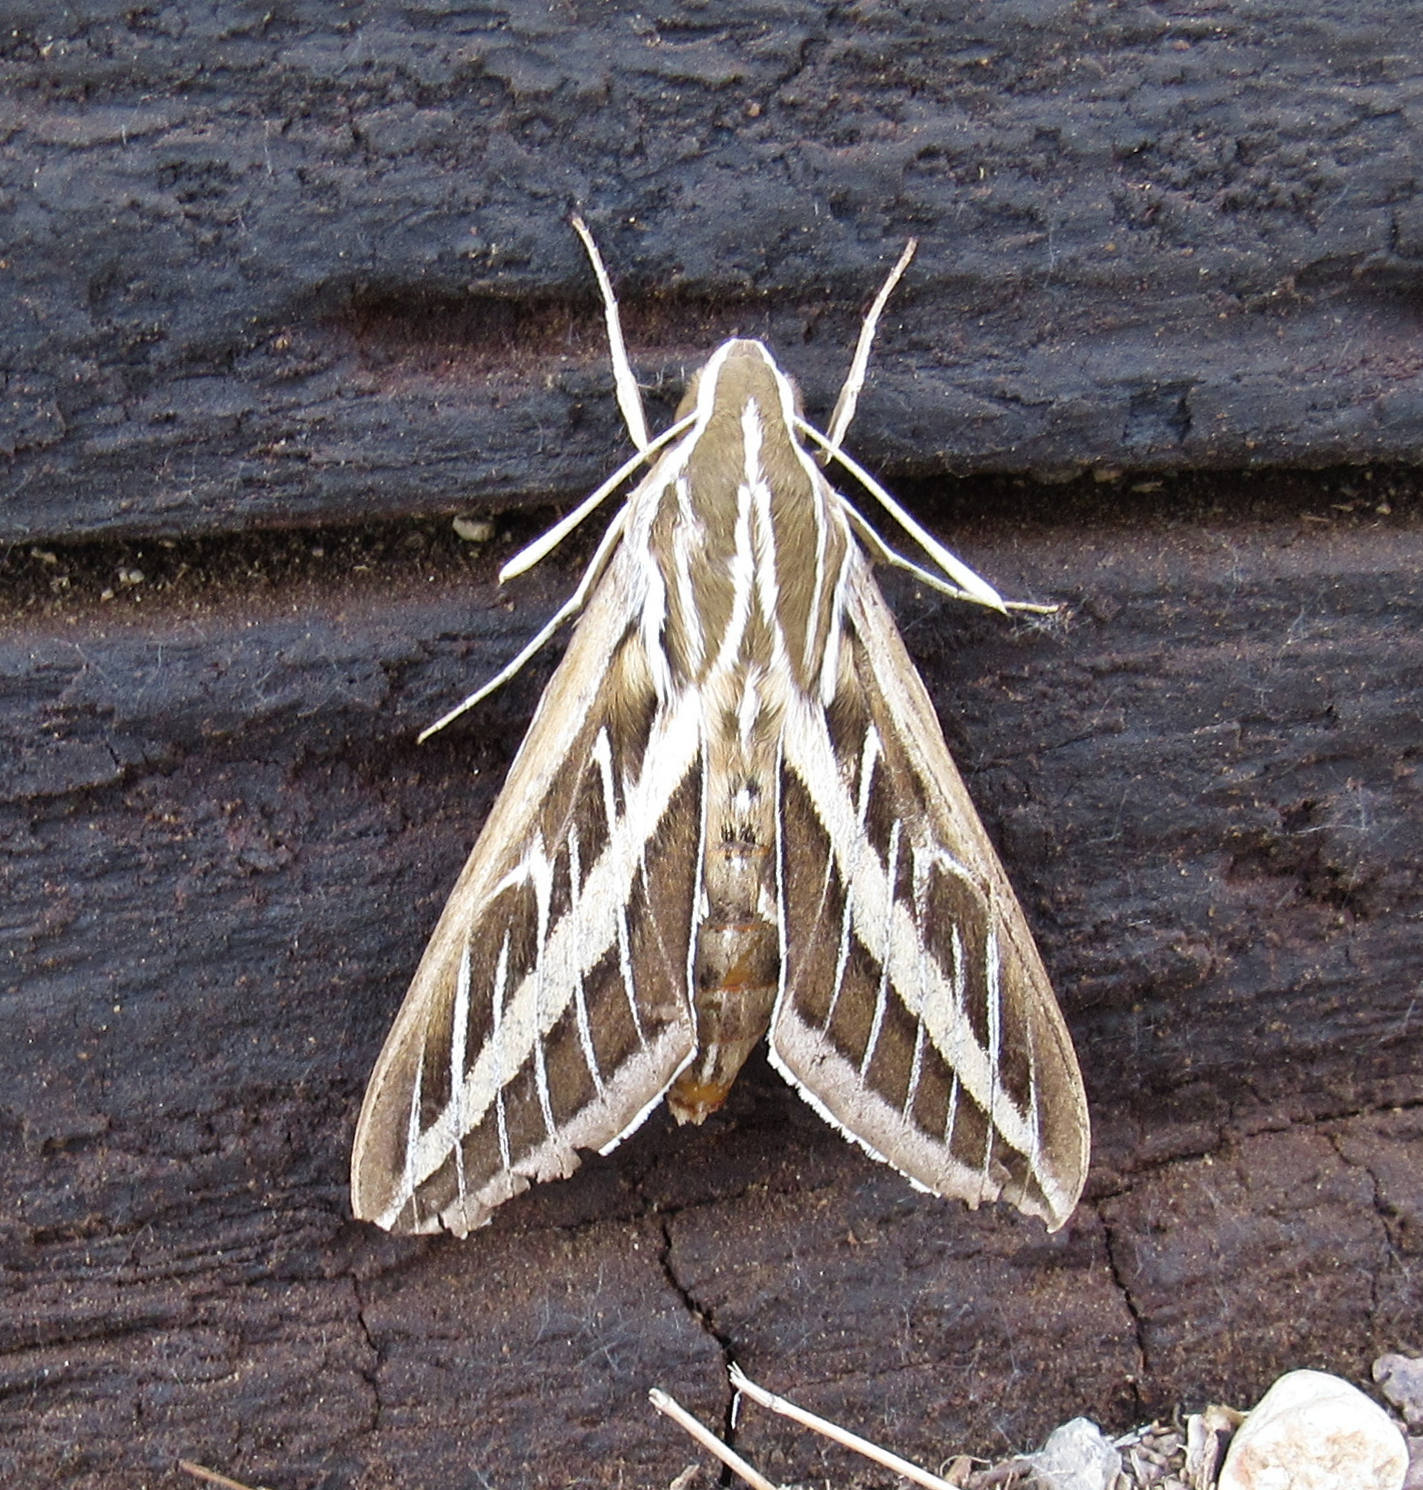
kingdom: Animalia
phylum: Arthropoda
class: Insecta
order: Lepidoptera
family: Sphingidae
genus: Hyles
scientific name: Hyles lineata
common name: White-lined sphinx
